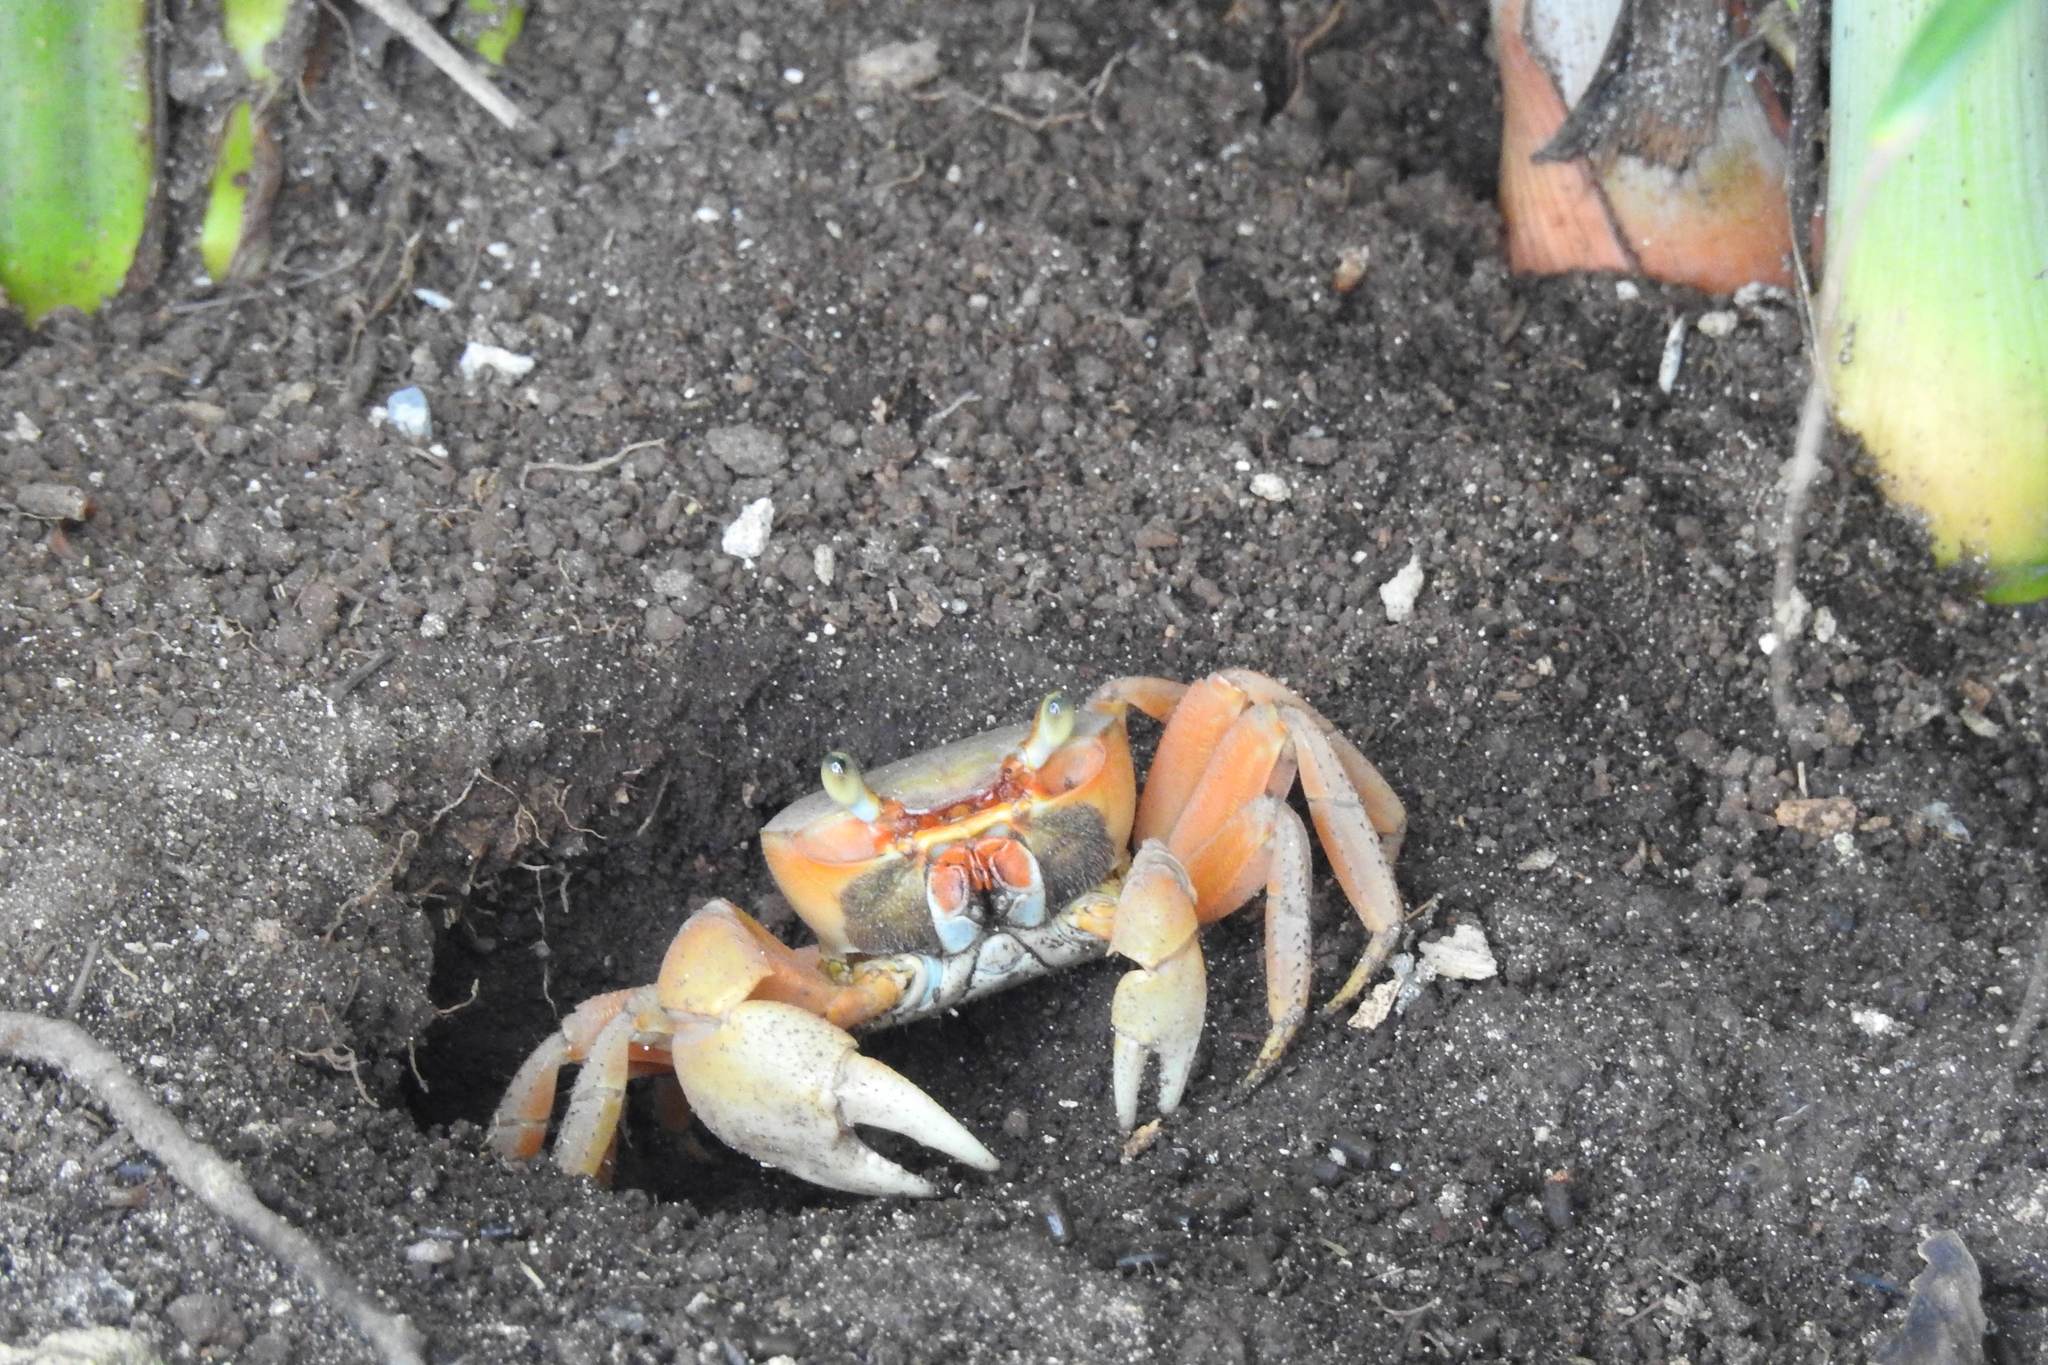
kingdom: Animalia
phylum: Arthropoda
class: Malacostraca
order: Decapoda
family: Gecarcinidae
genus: Cardisoma
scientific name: Cardisoma guanhumi
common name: Great land crab
